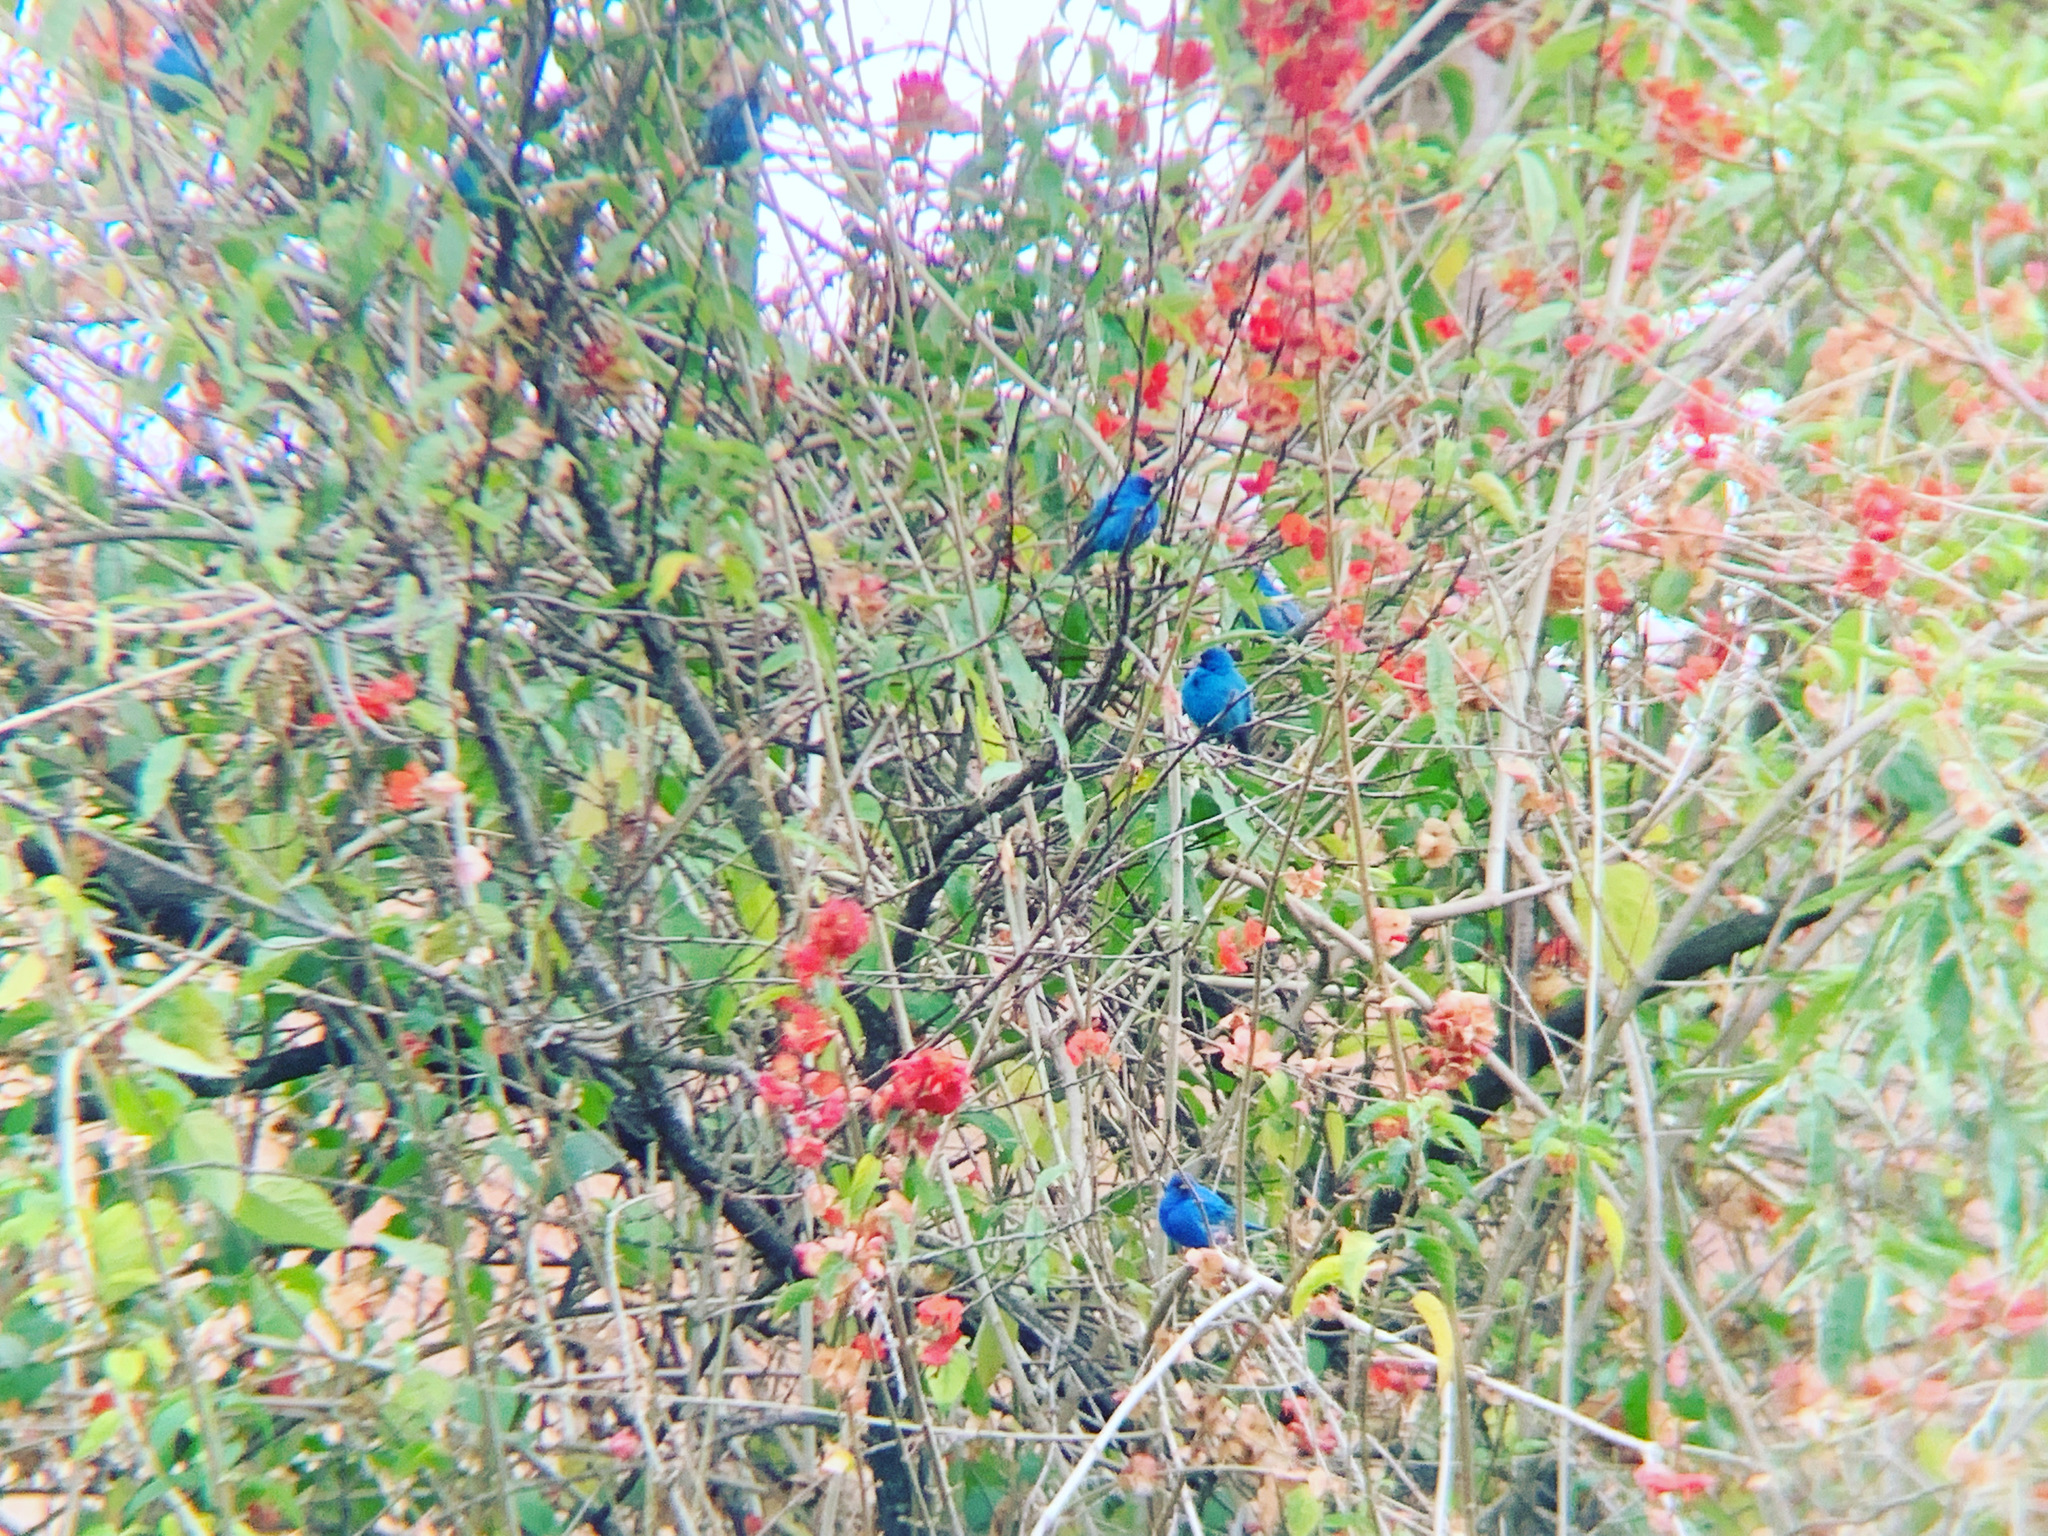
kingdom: Animalia
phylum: Chordata
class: Aves
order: Passeriformes
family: Cardinalidae
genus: Passerina
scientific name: Passerina cyanea
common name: Indigo bunting
